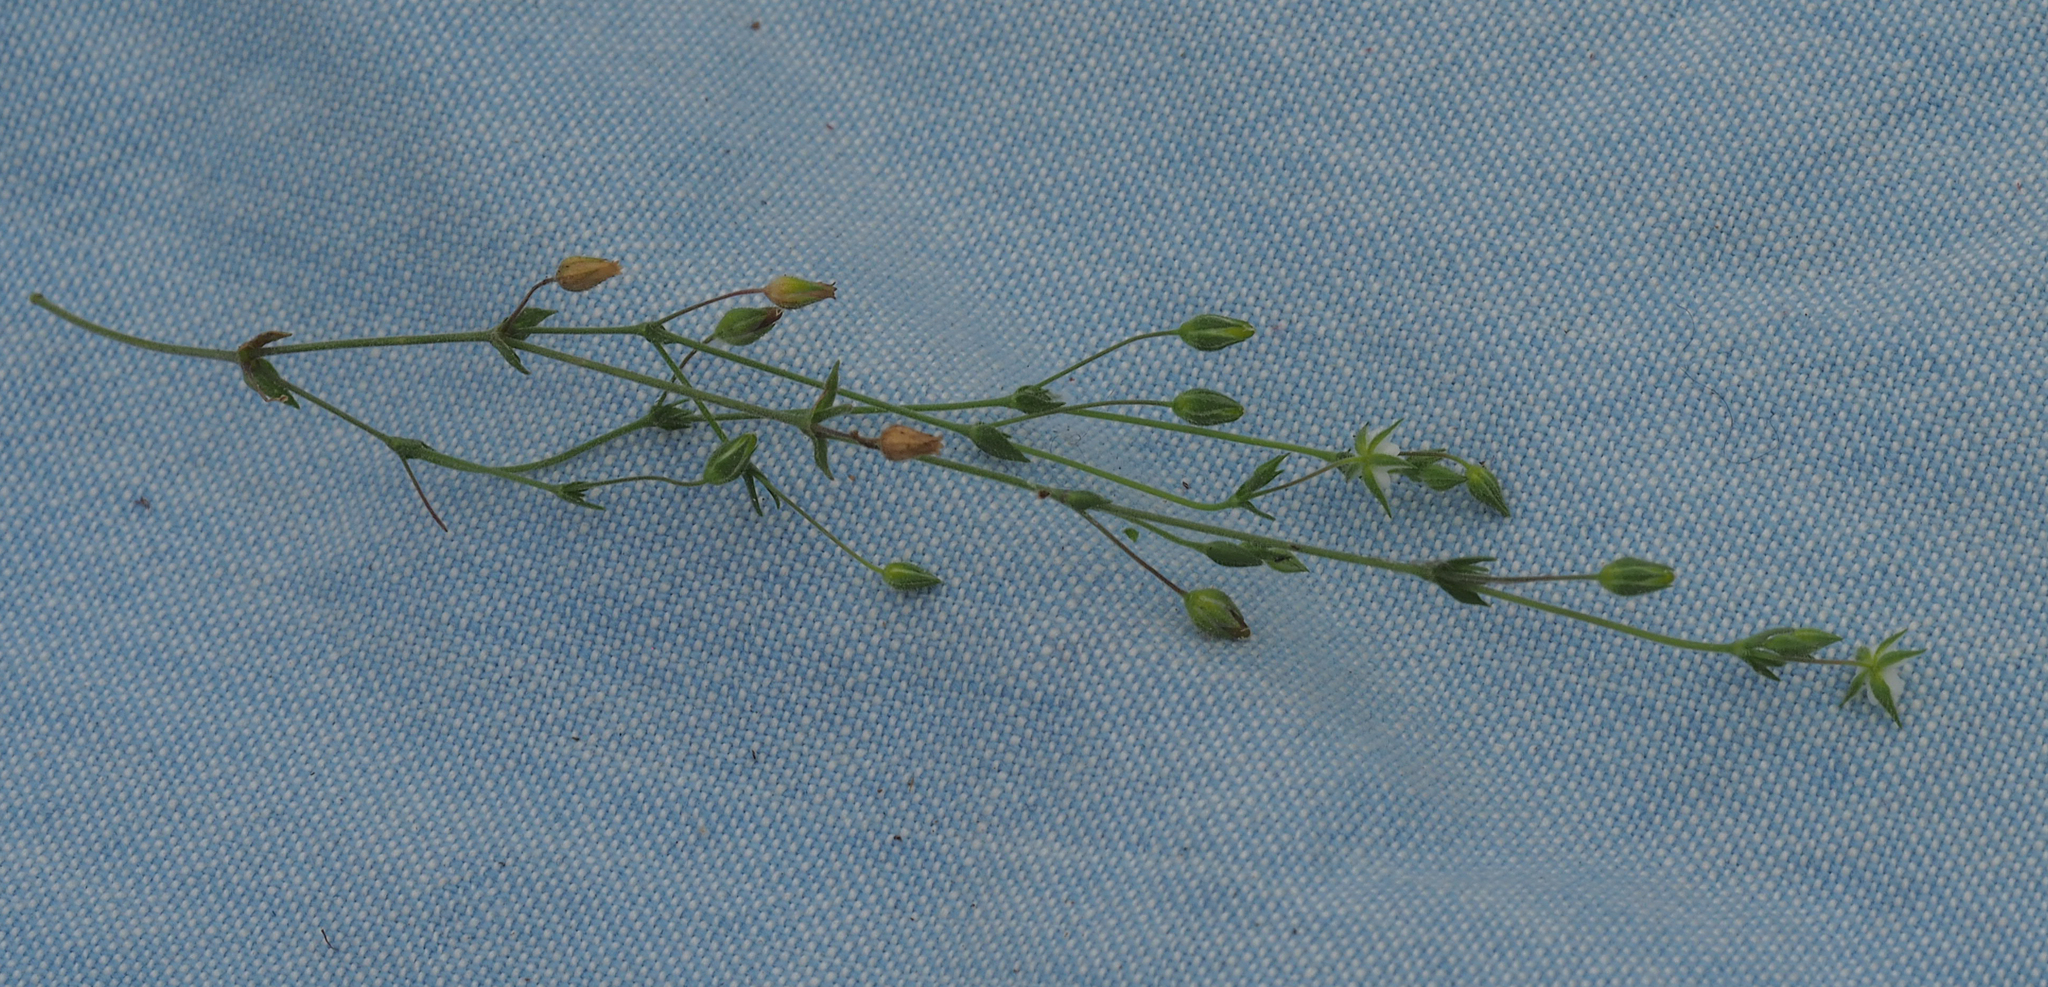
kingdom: Plantae
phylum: Tracheophyta
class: Magnoliopsida
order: Caryophyllales
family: Caryophyllaceae
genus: Arenaria
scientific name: Arenaria serpyllifolia
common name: Thyme-leaved sandwort
